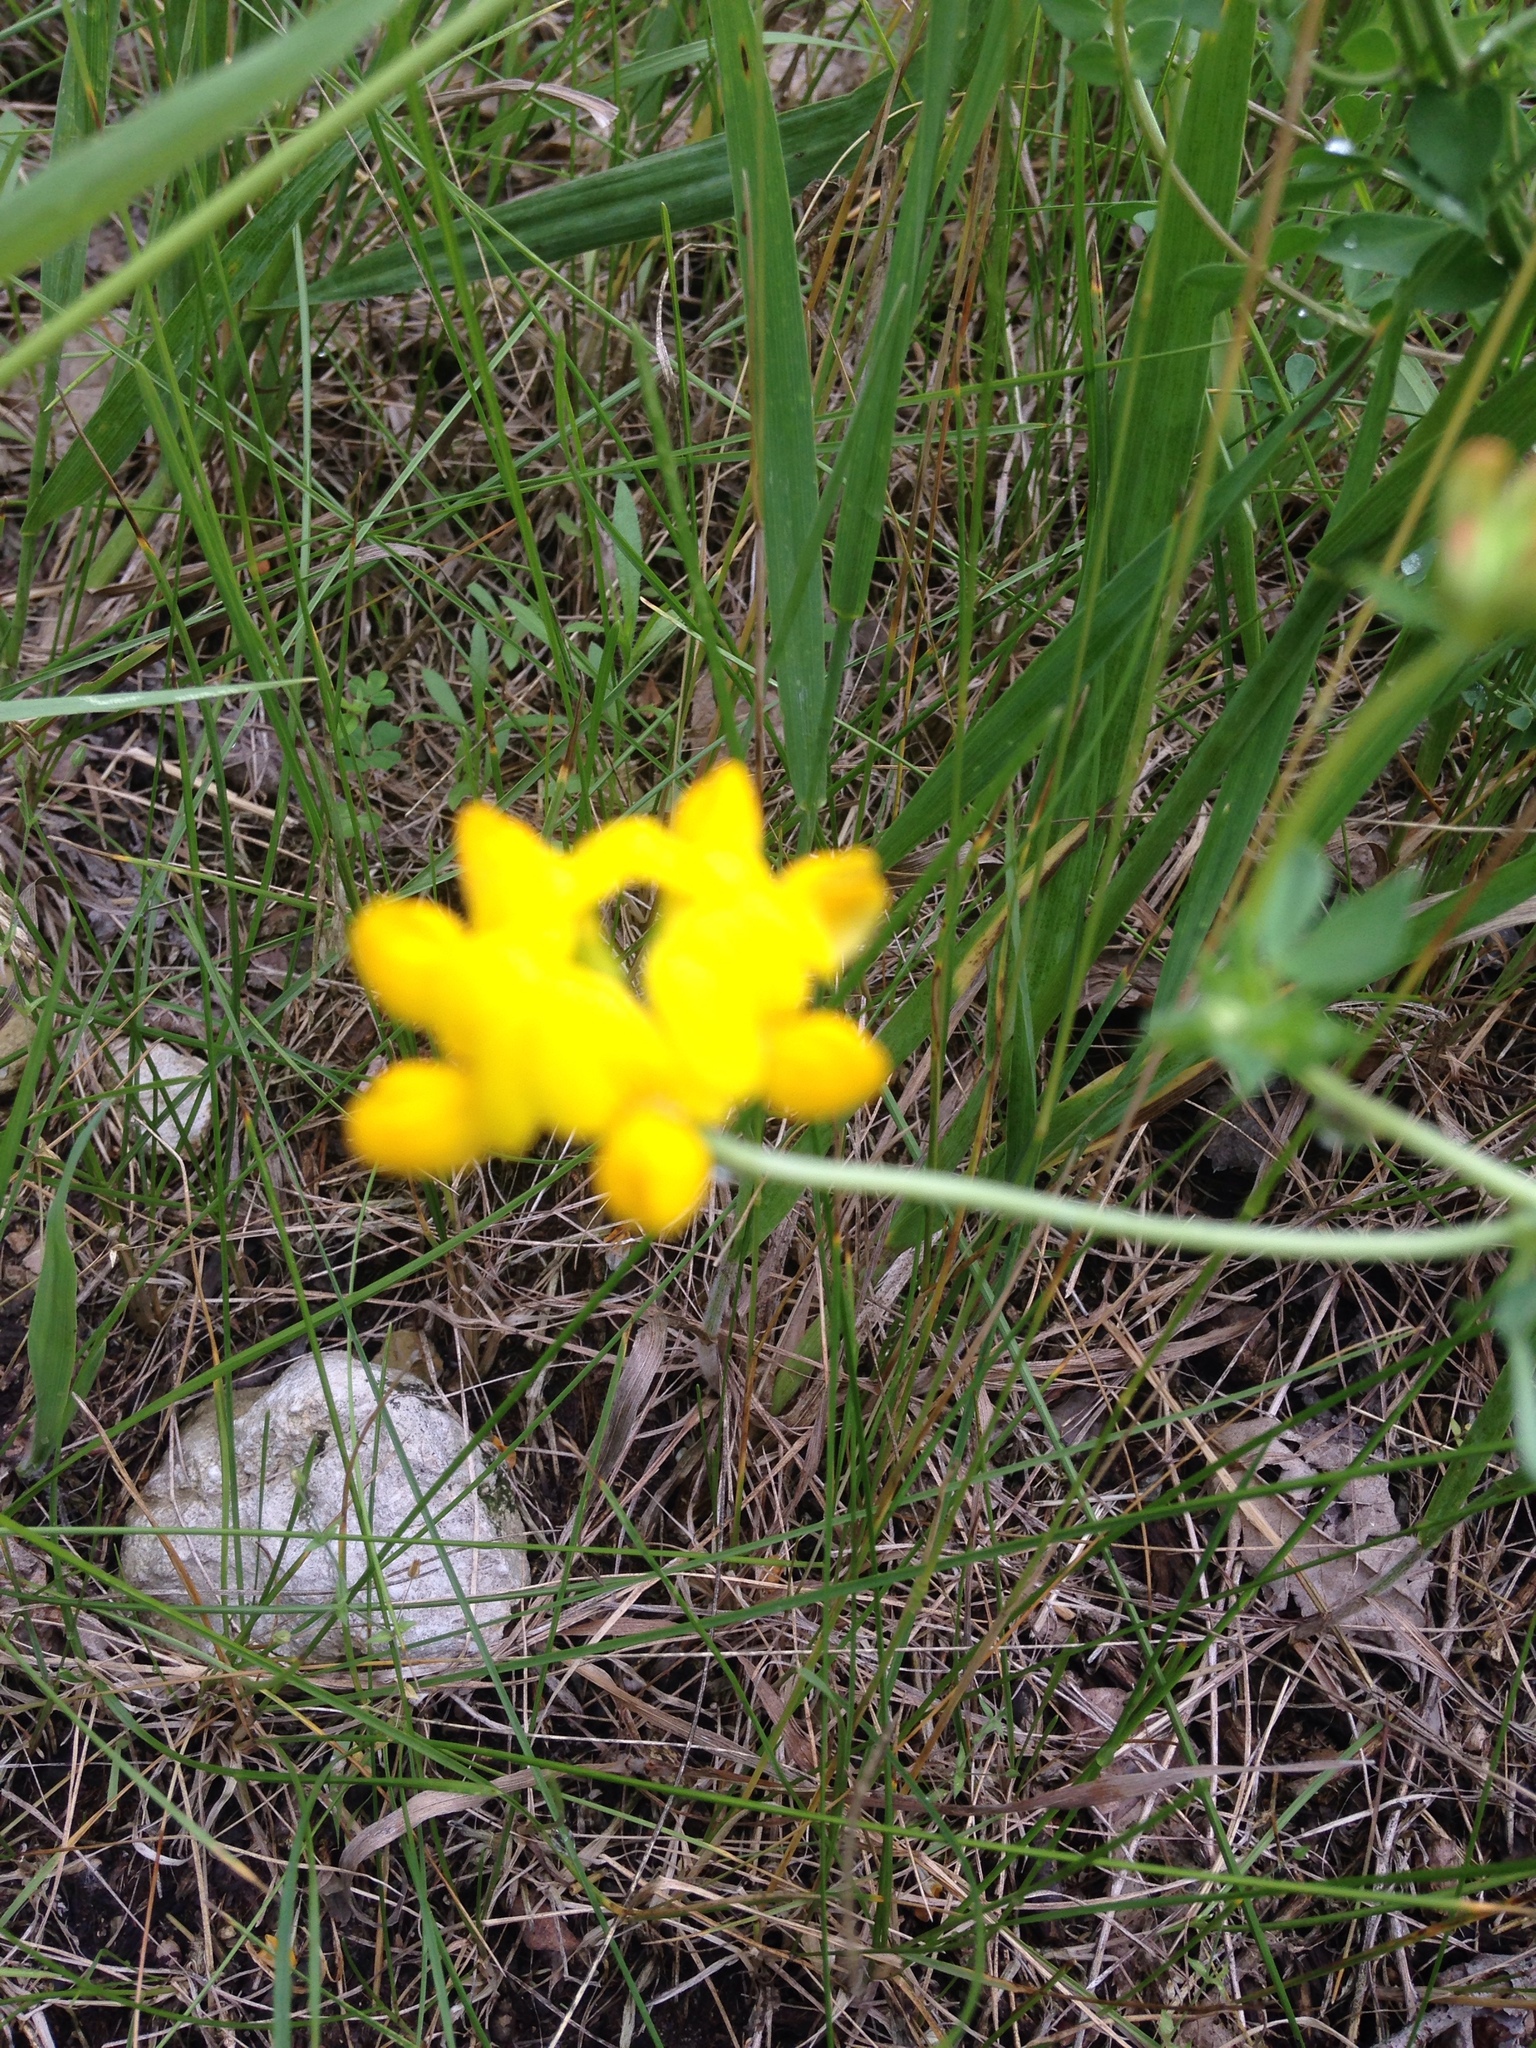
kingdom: Plantae
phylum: Tracheophyta
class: Magnoliopsida
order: Fabales
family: Fabaceae
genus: Lotus
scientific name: Lotus corniculatus
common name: Common bird's-foot-trefoil
